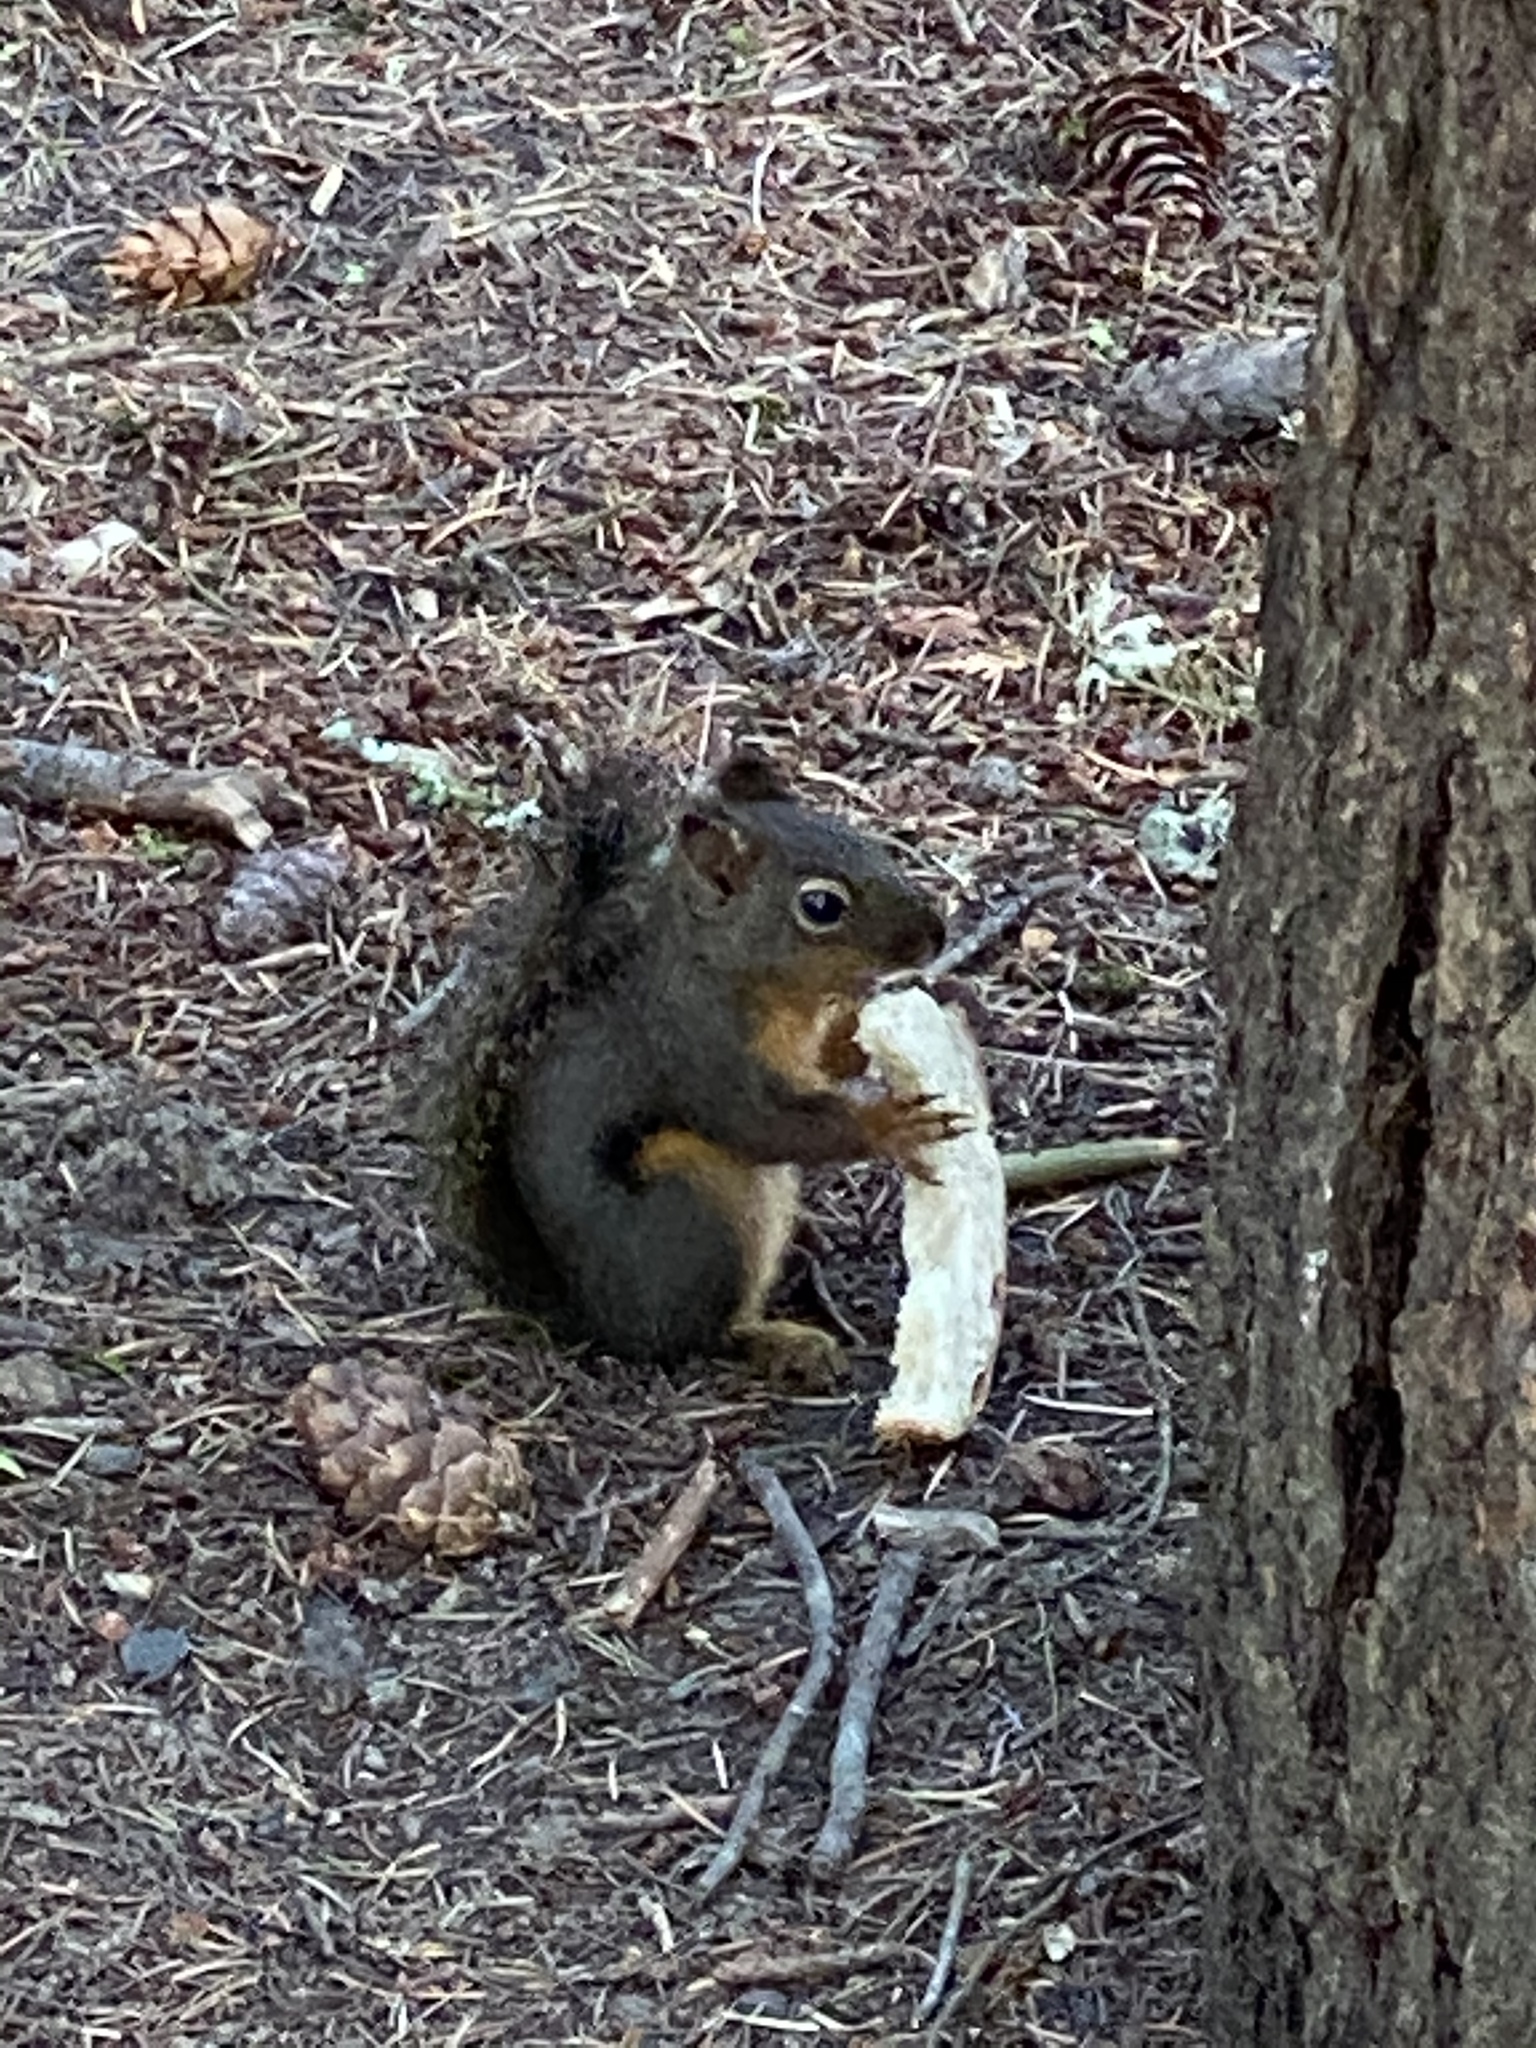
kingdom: Animalia
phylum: Chordata
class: Mammalia
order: Rodentia
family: Sciuridae
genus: Tamiasciurus
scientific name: Tamiasciurus douglasii
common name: Douglas's squirrel
